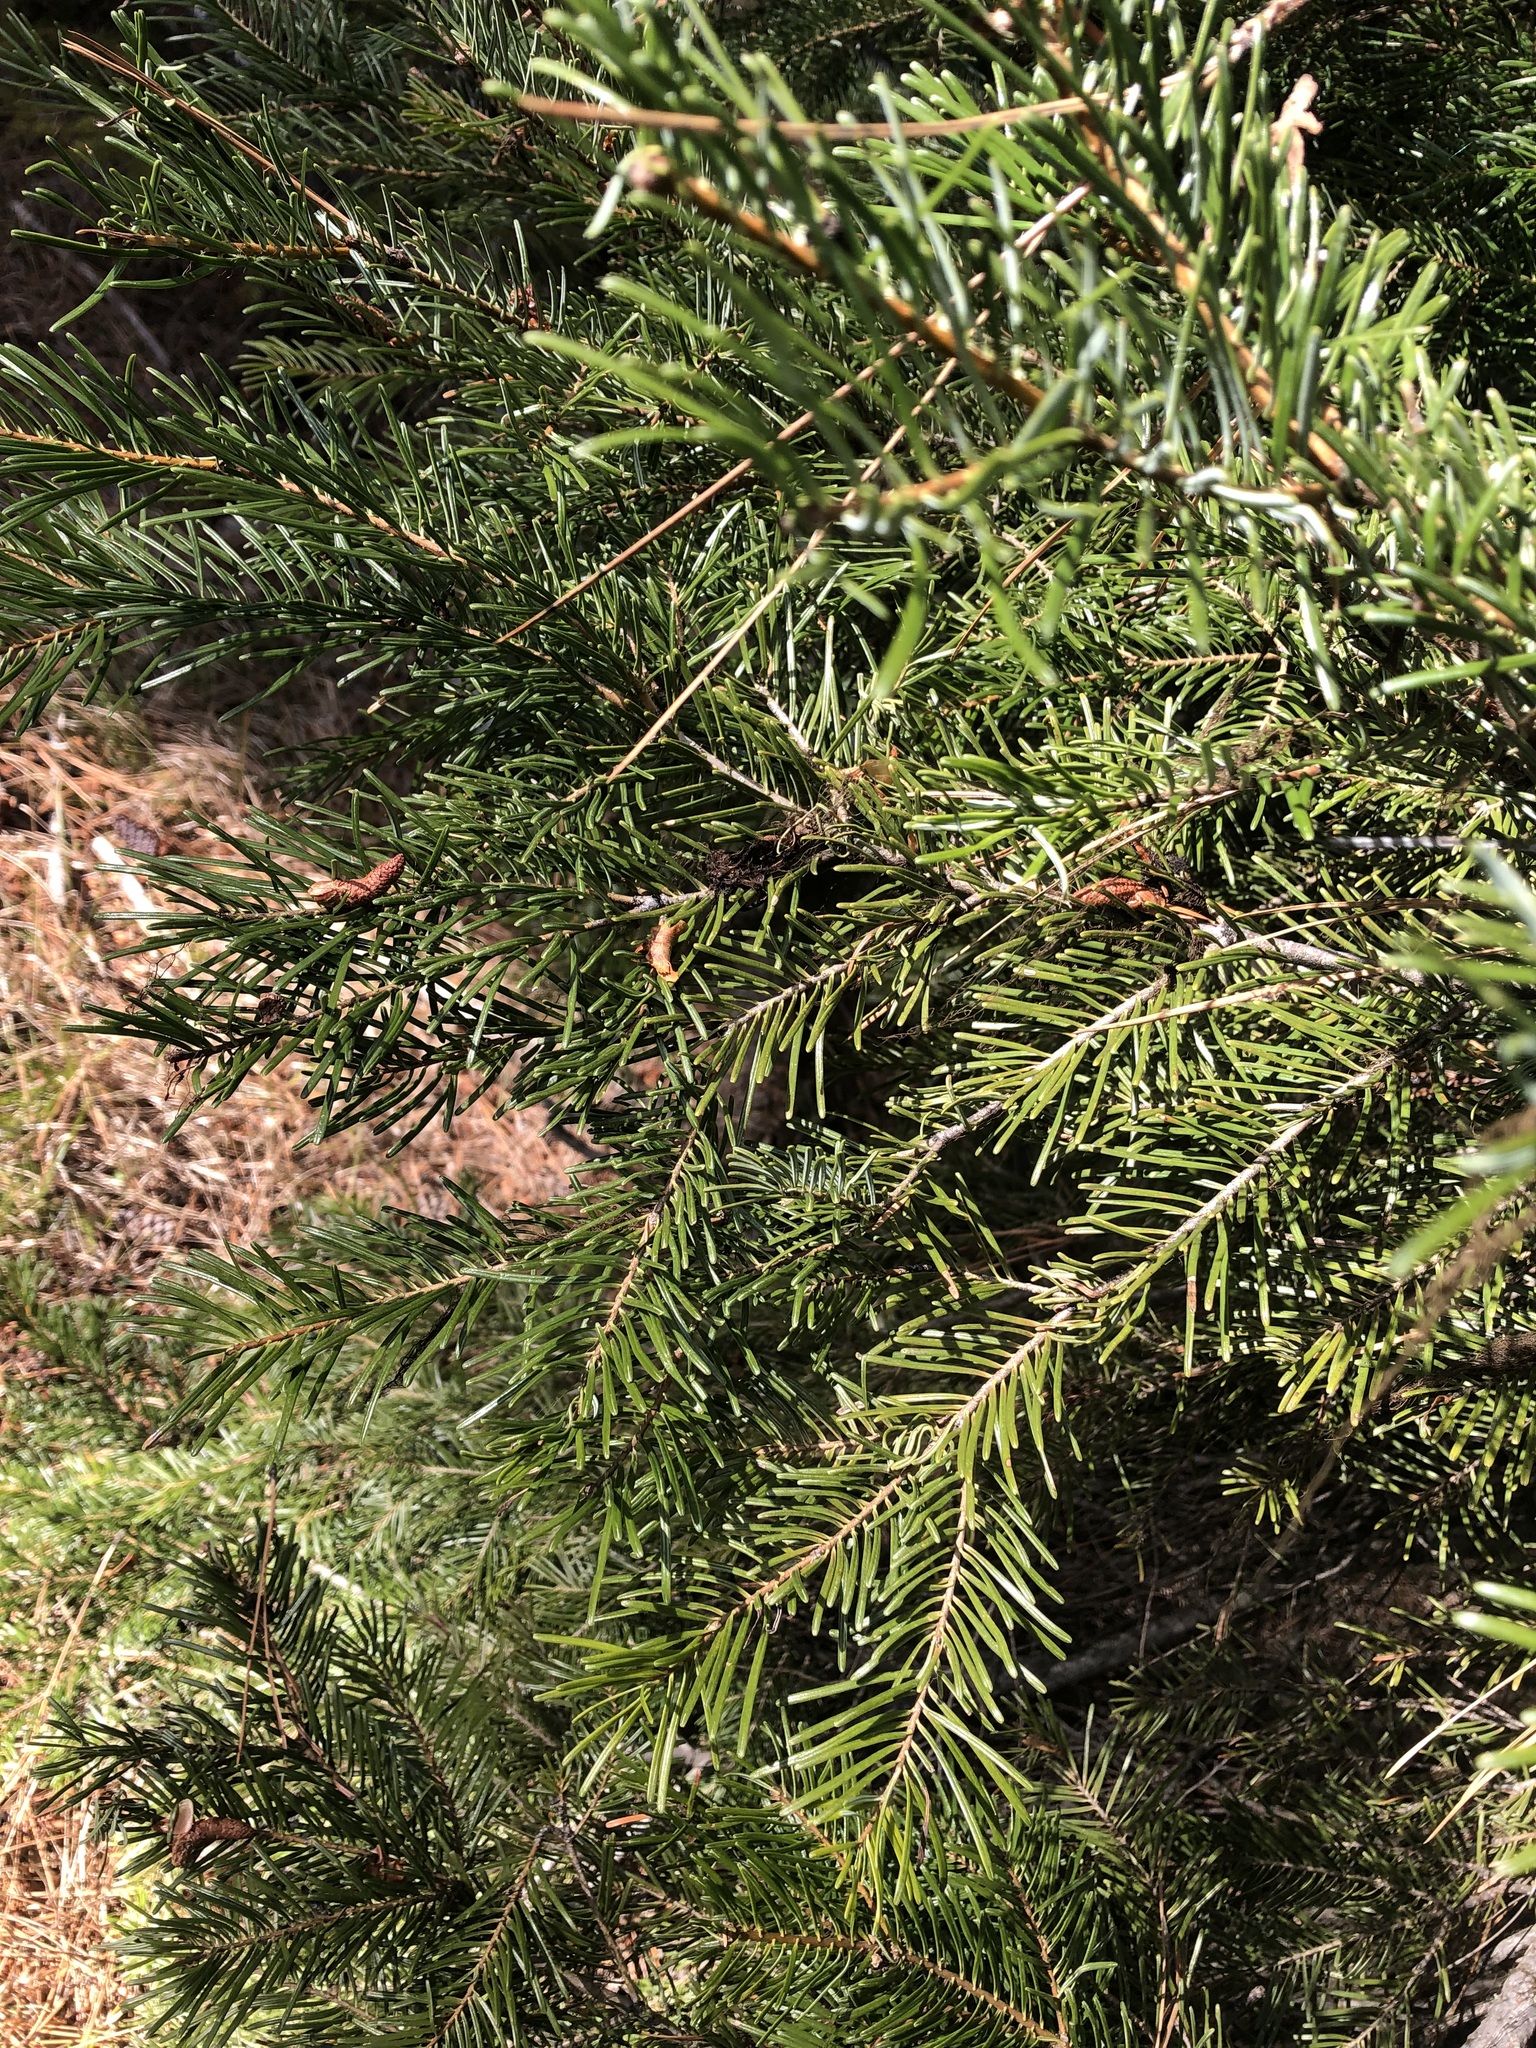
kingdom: Plantae
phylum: Tracheophyta
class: Pinopsida
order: Pinales
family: Pinaceae
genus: Abies
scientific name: Abies concolor
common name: Colorado fir
